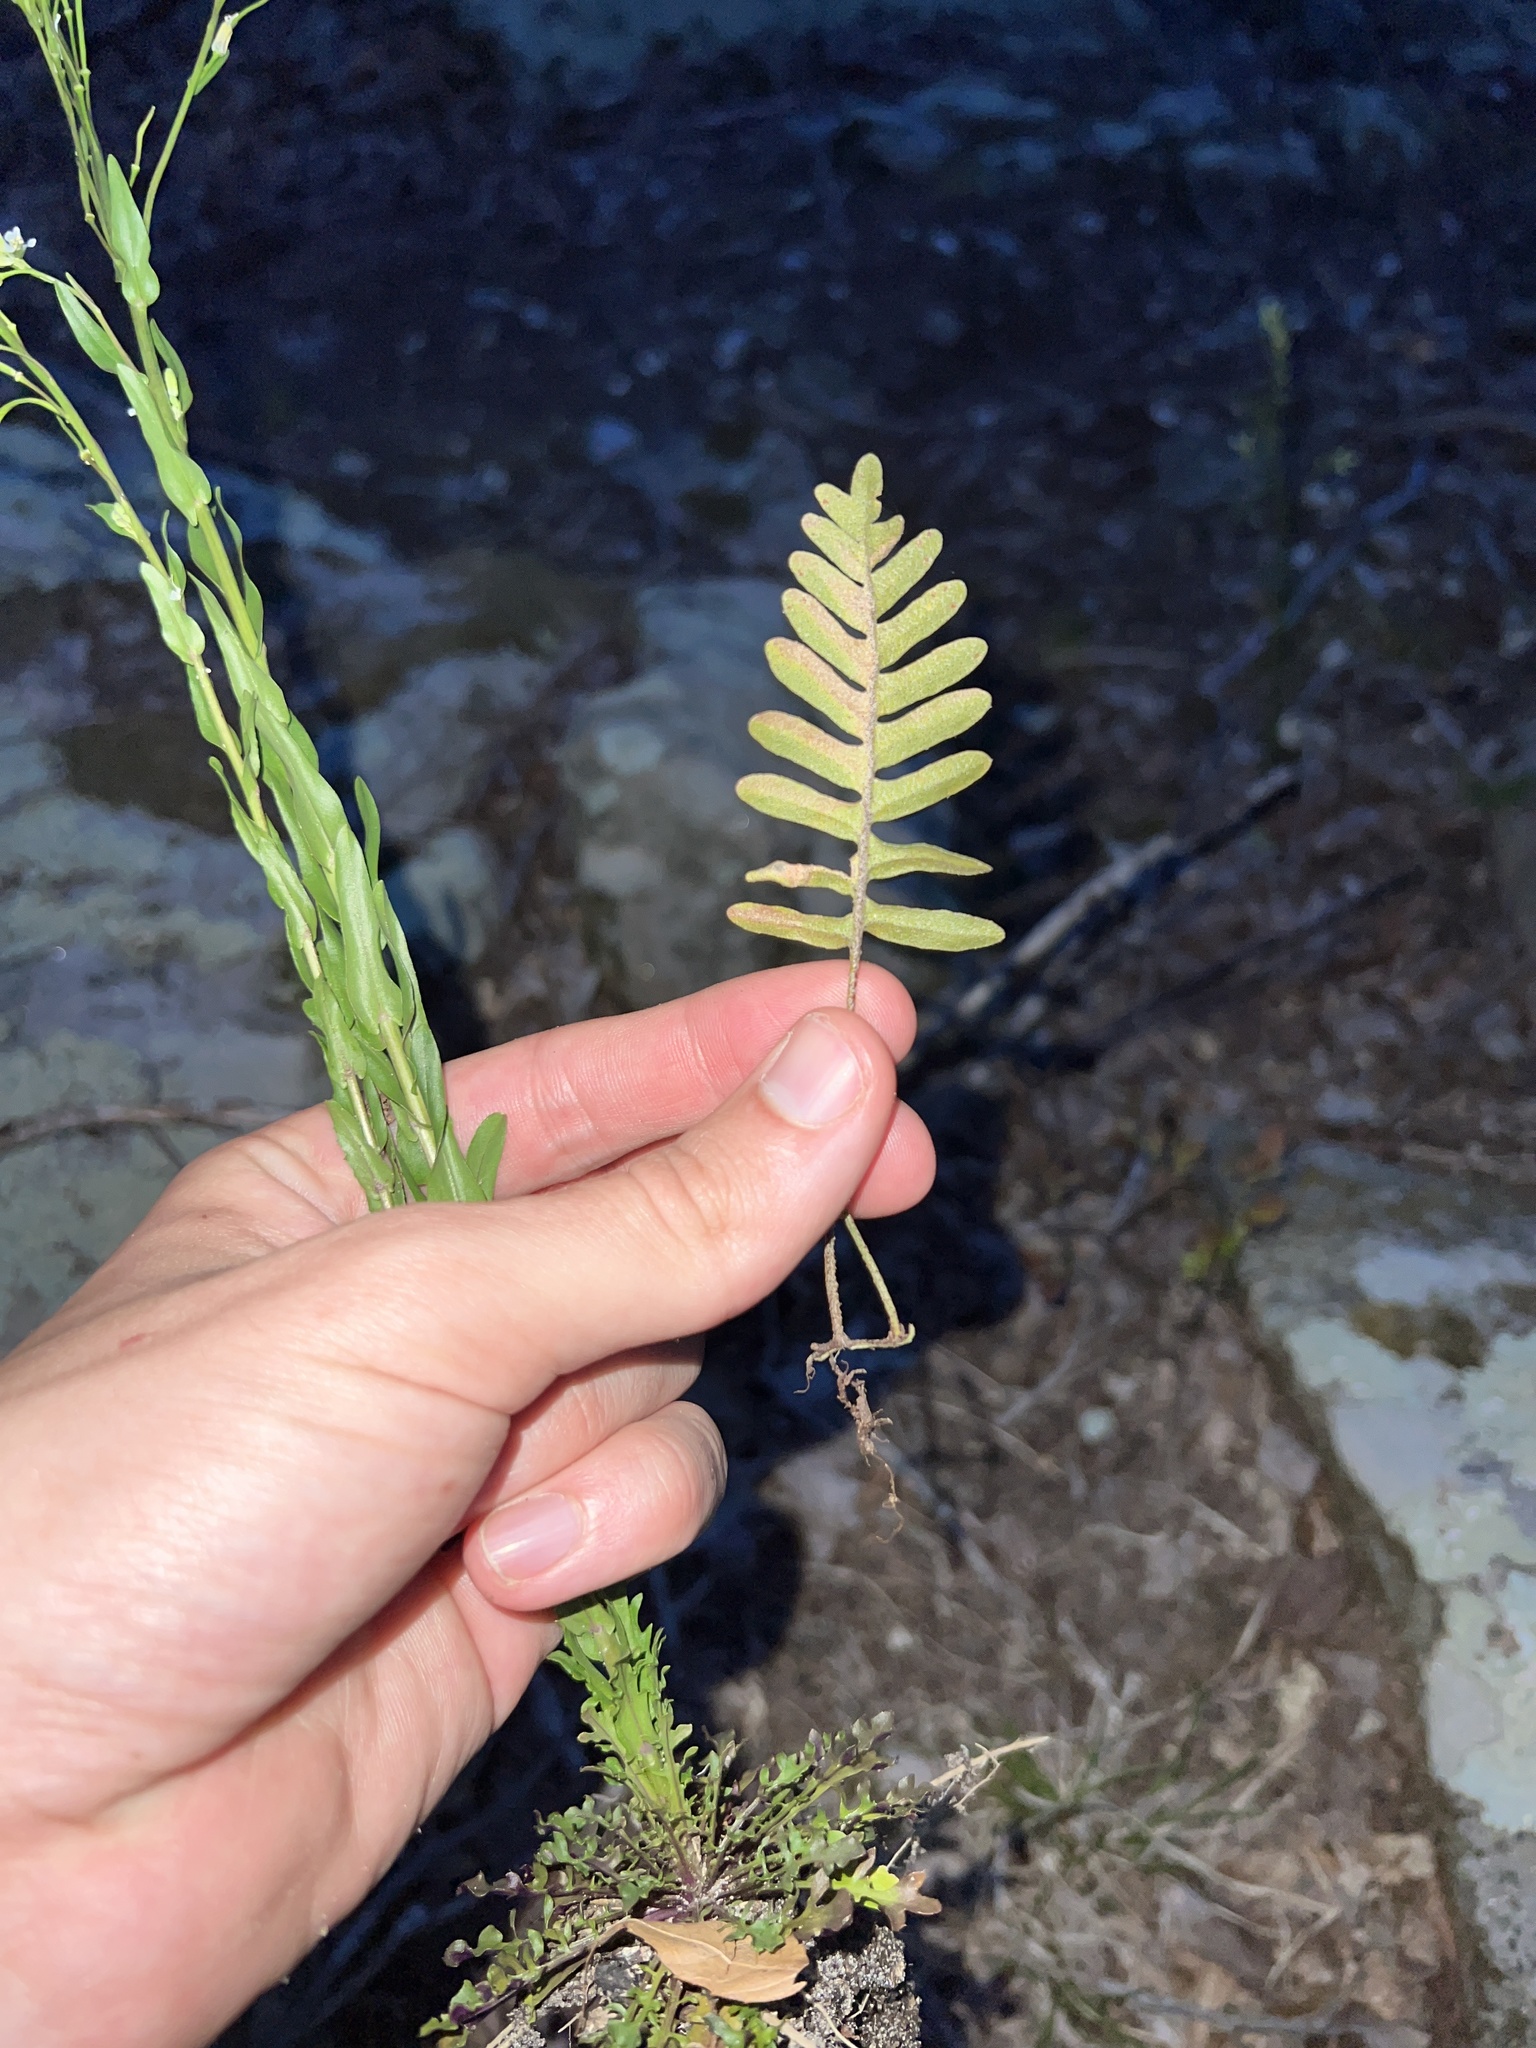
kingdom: Plantae
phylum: Tracheophyta
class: Polypodiopsida
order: Polypodiales
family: Polypodiaceae
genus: Pleopeltis
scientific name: Pleopeltis michauxiana
